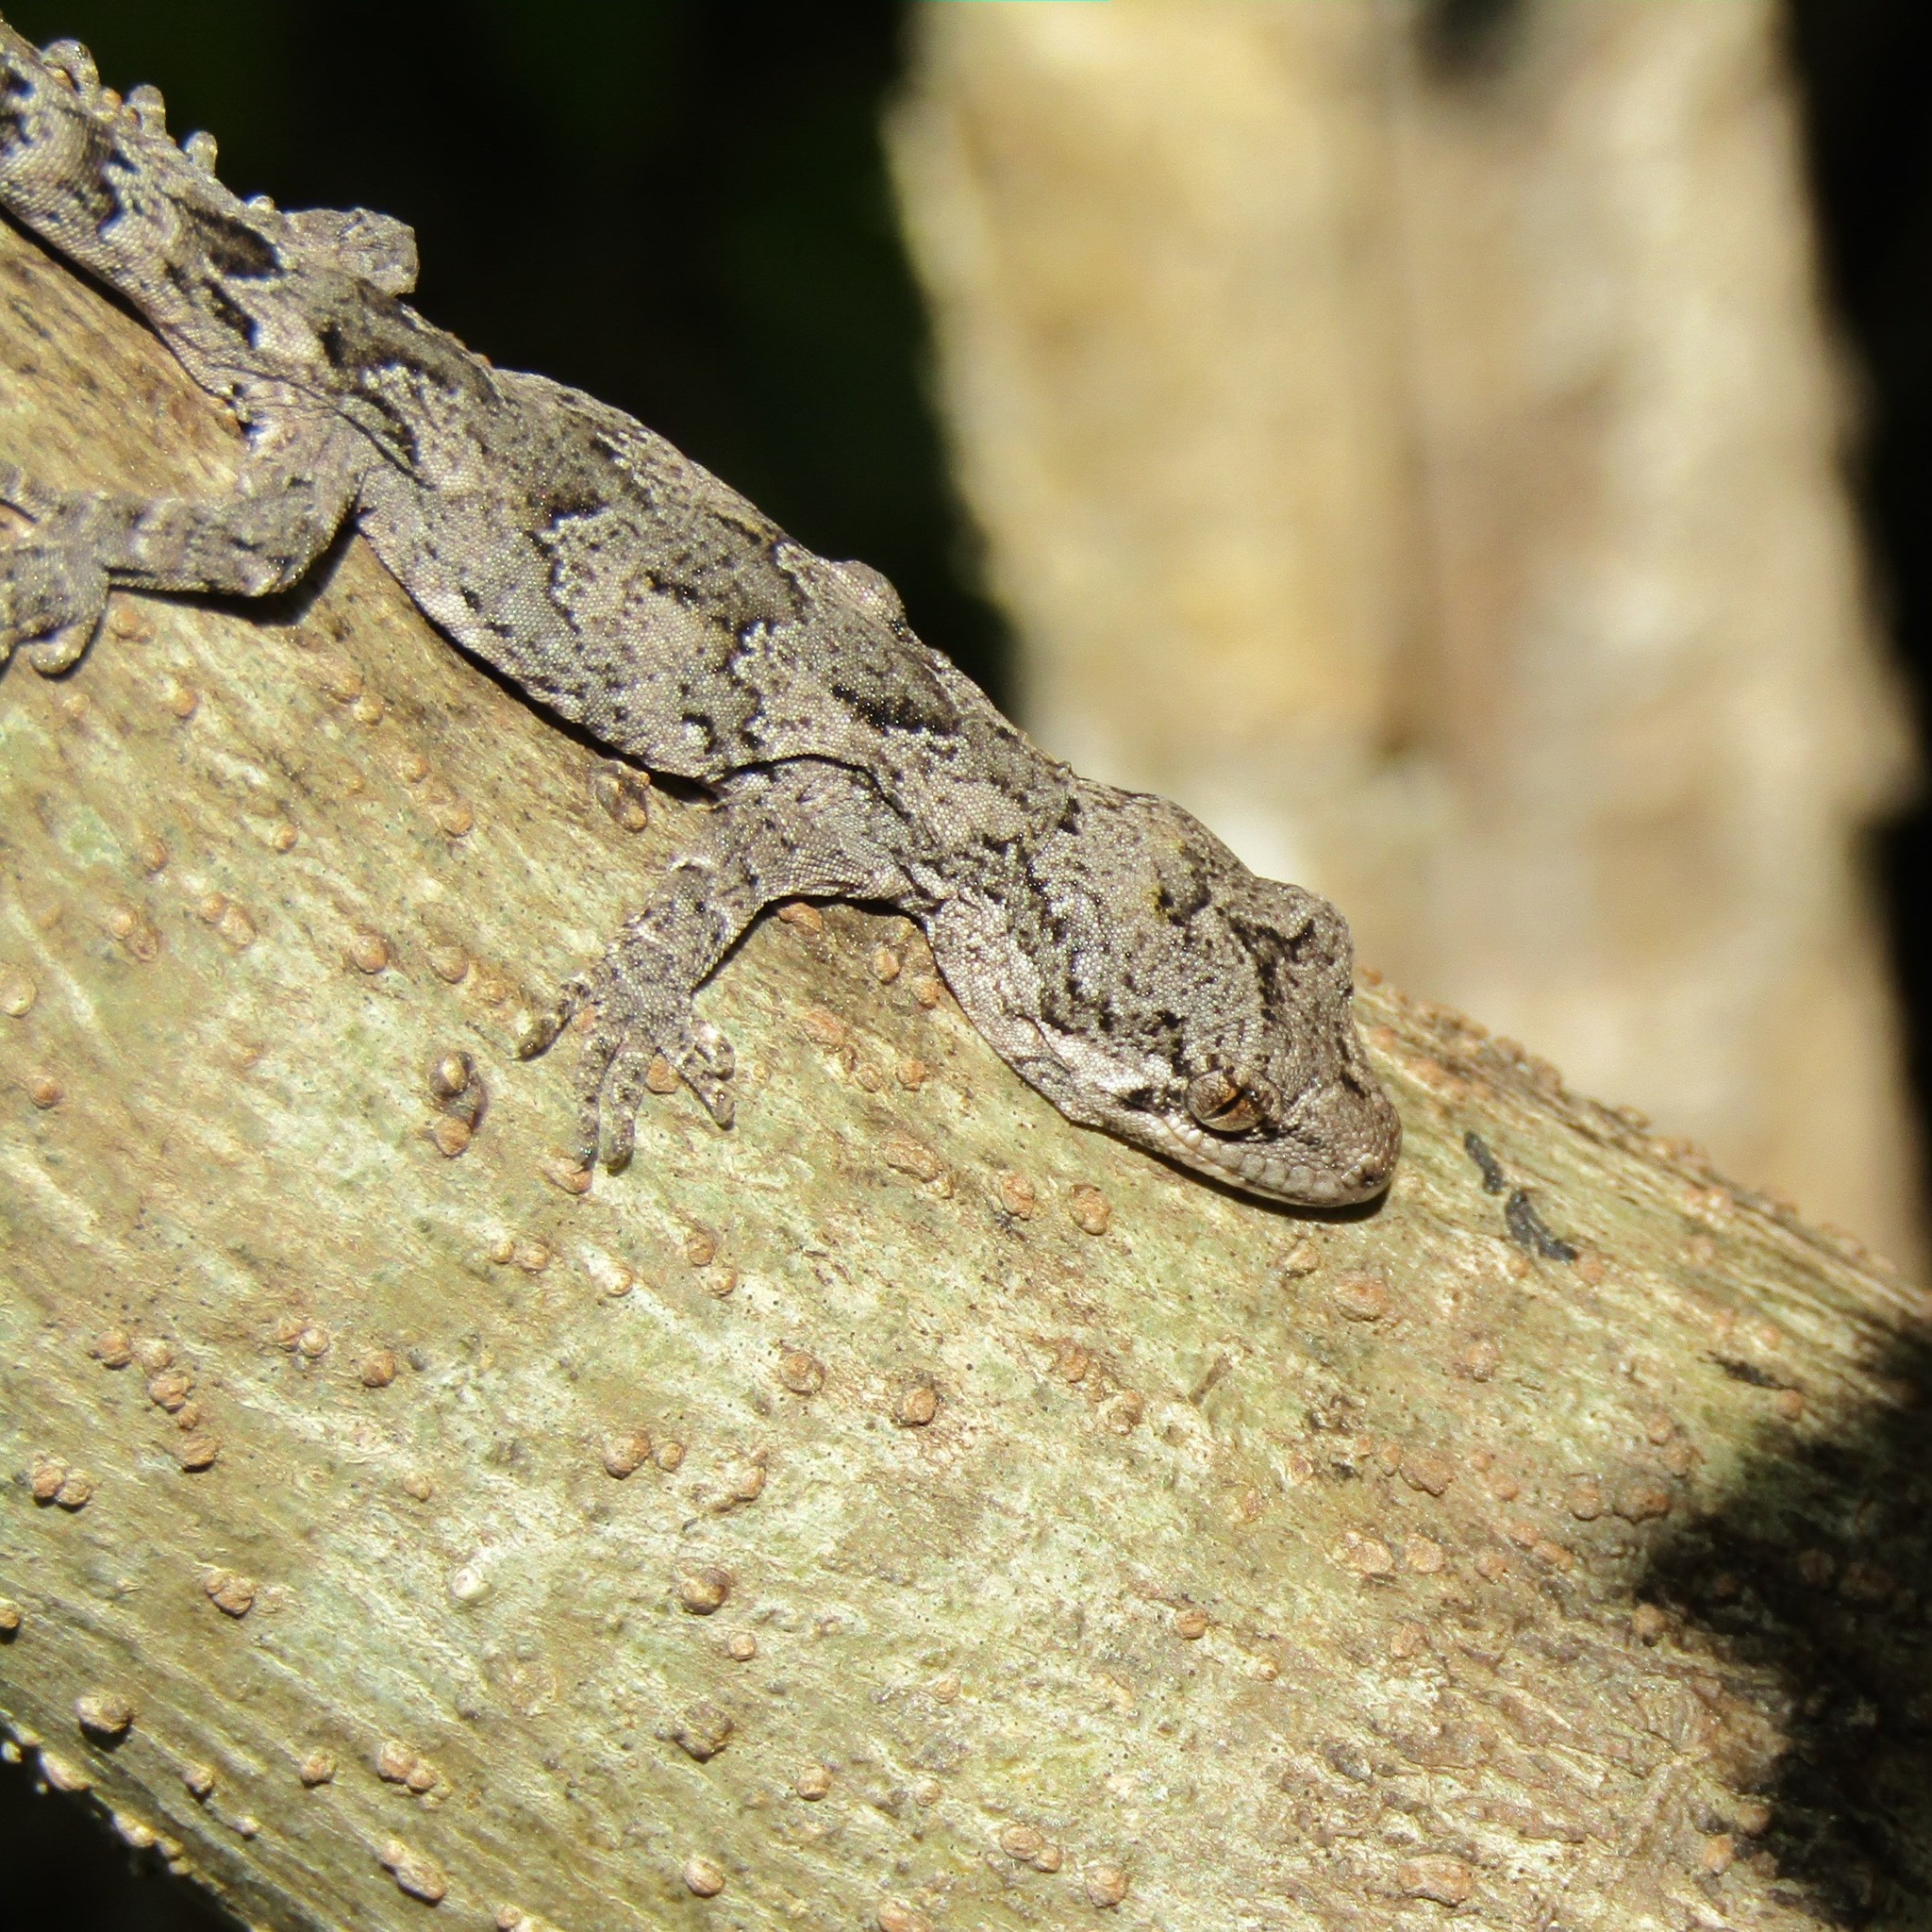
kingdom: Animalia
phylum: Chordata
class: Squamata
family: Diplodactylidae
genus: Mokopirirakau
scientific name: Mokopirirakau
